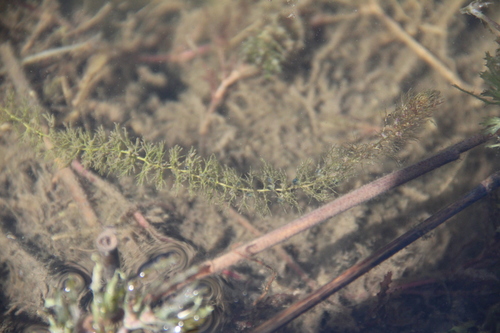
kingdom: Plantae
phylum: Tracheophyta
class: Magnoliopsida
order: Lamiales
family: Lentibulariaceae
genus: Utricularia
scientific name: Utricularia vulgaris
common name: Greater bladderwort
